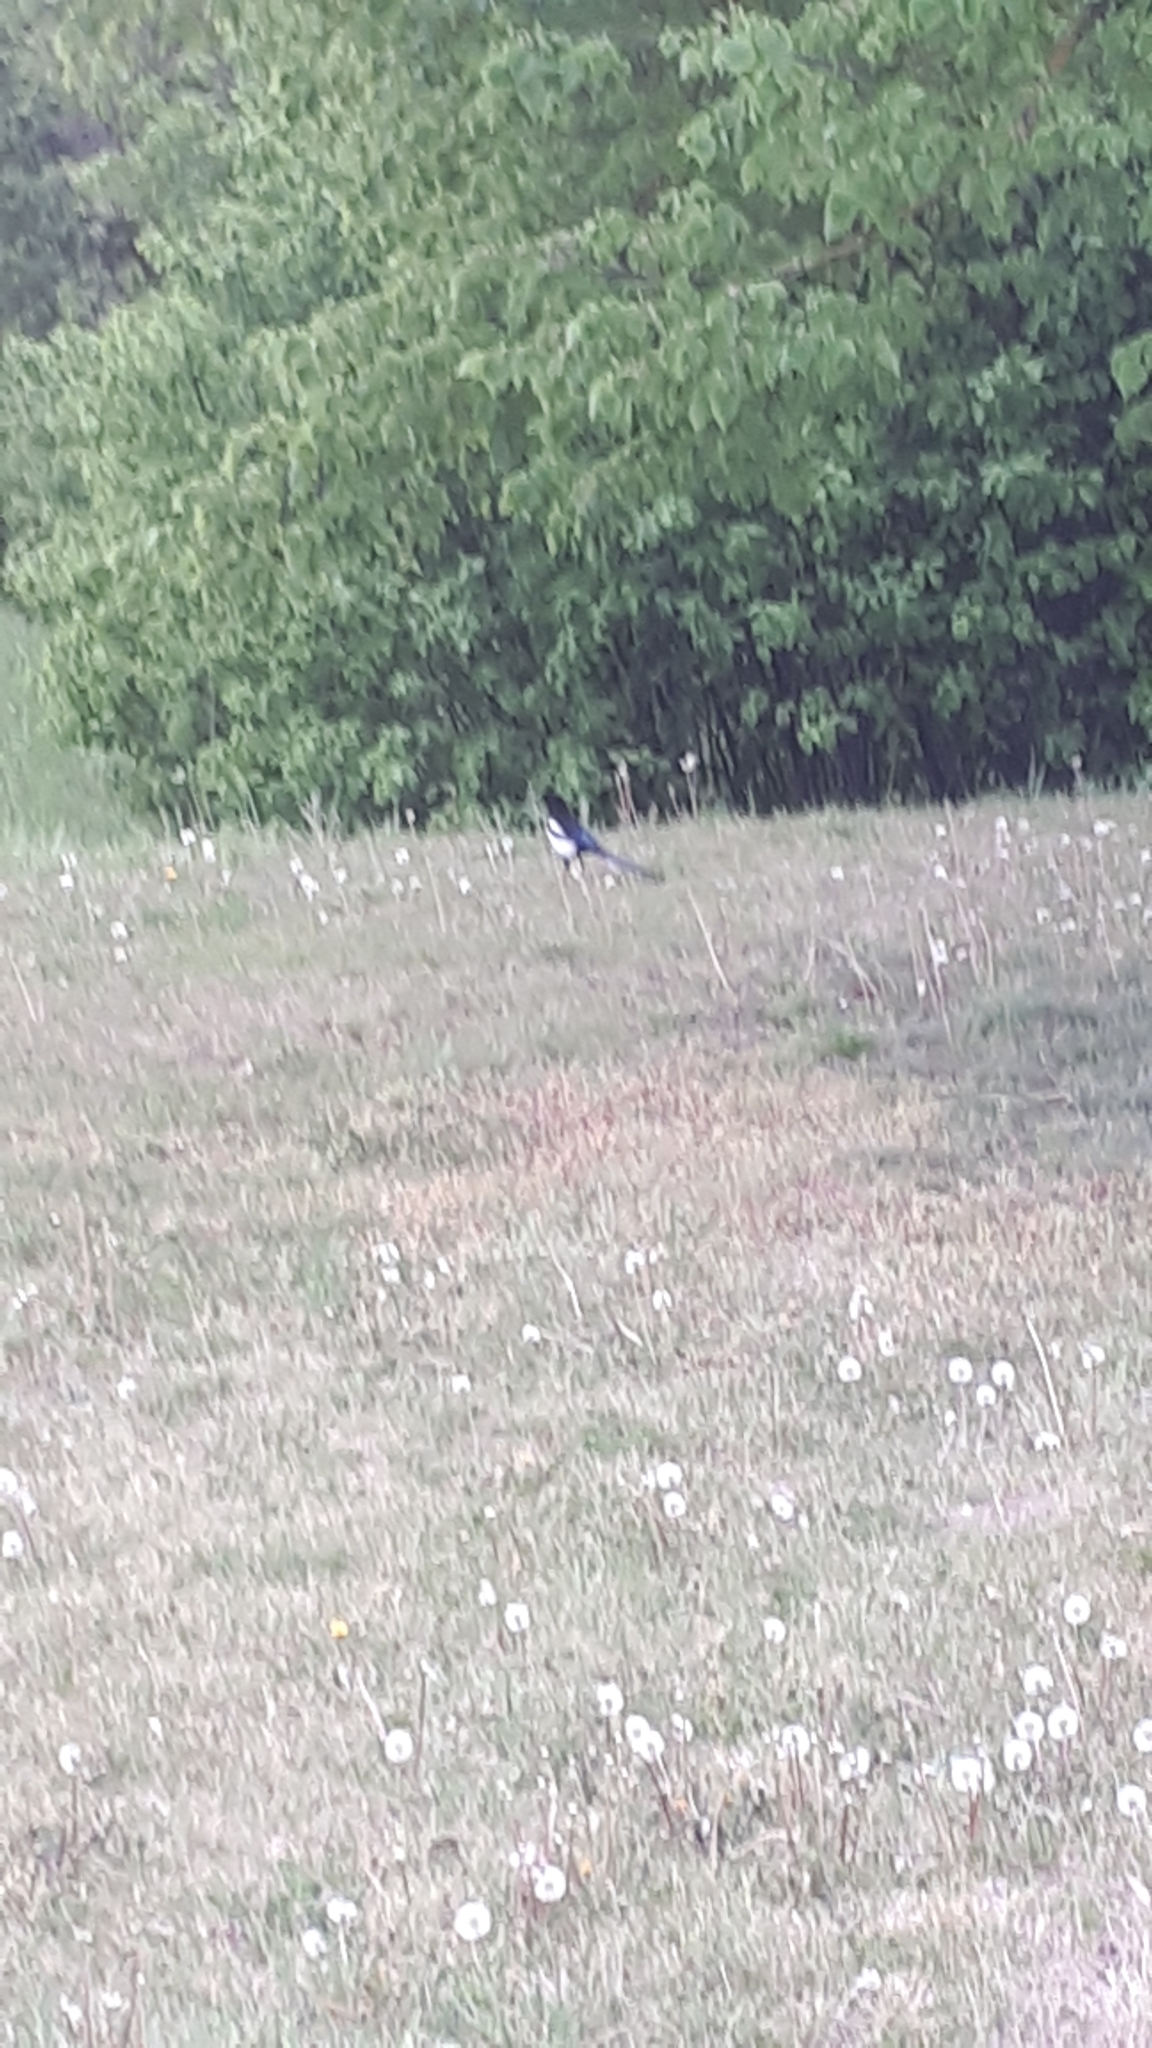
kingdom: Animalia
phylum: Chordata
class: Aves
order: Passeriformes
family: Corvidae
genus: Pica
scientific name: Pica pica
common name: Eurasian magpie
